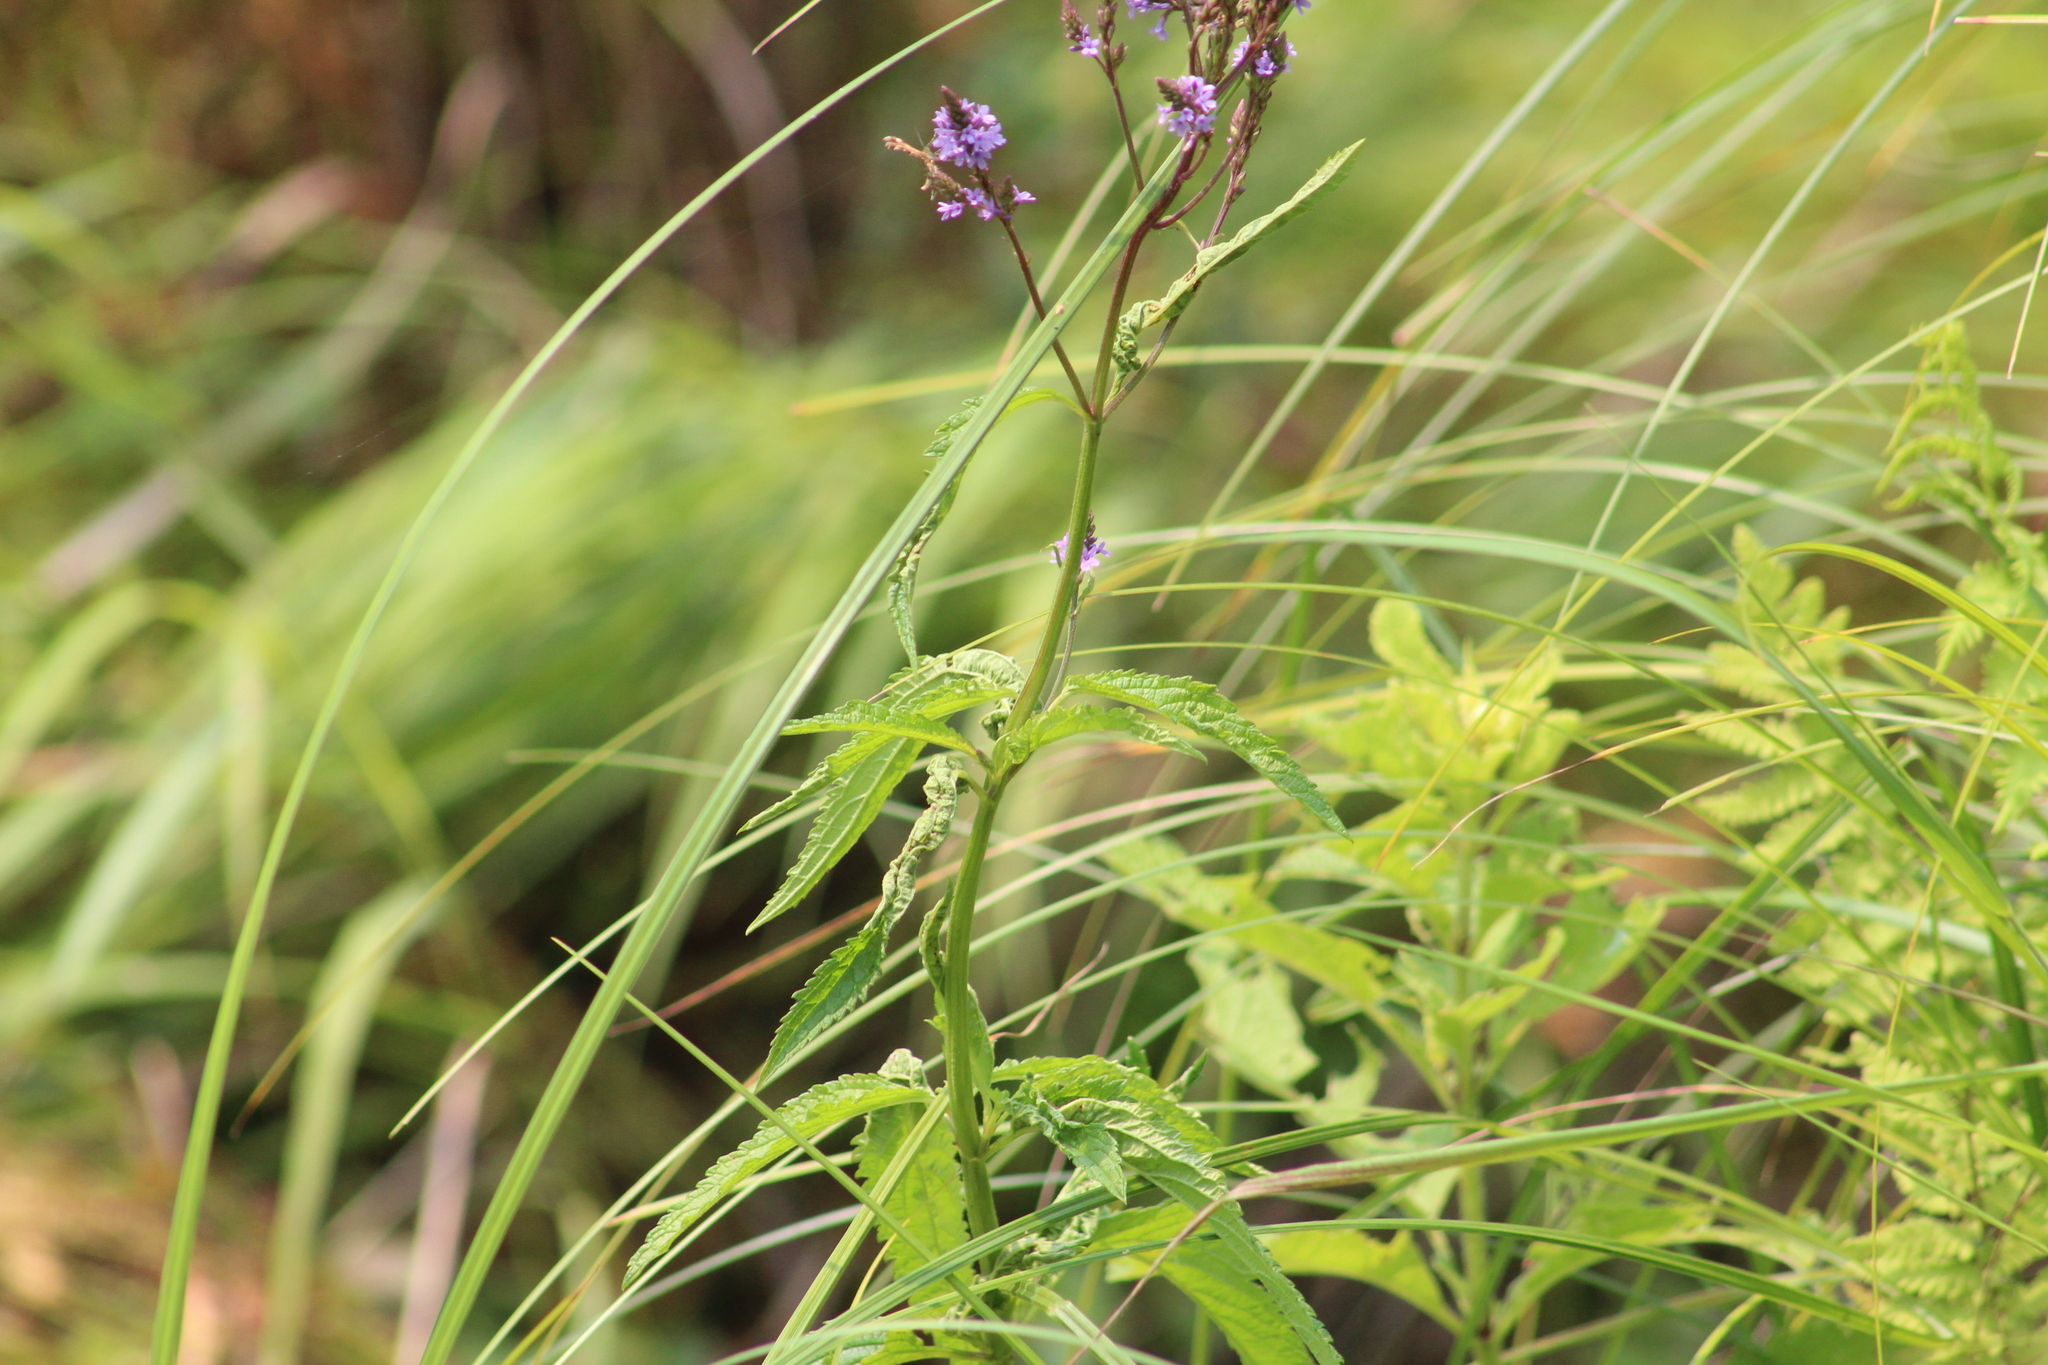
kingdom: Plantae
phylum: Tracheophyta
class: Magnoliopsida
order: Lamiales
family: Verbenaceae
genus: Verbena
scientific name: Verbena hastata
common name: American blue vervain
